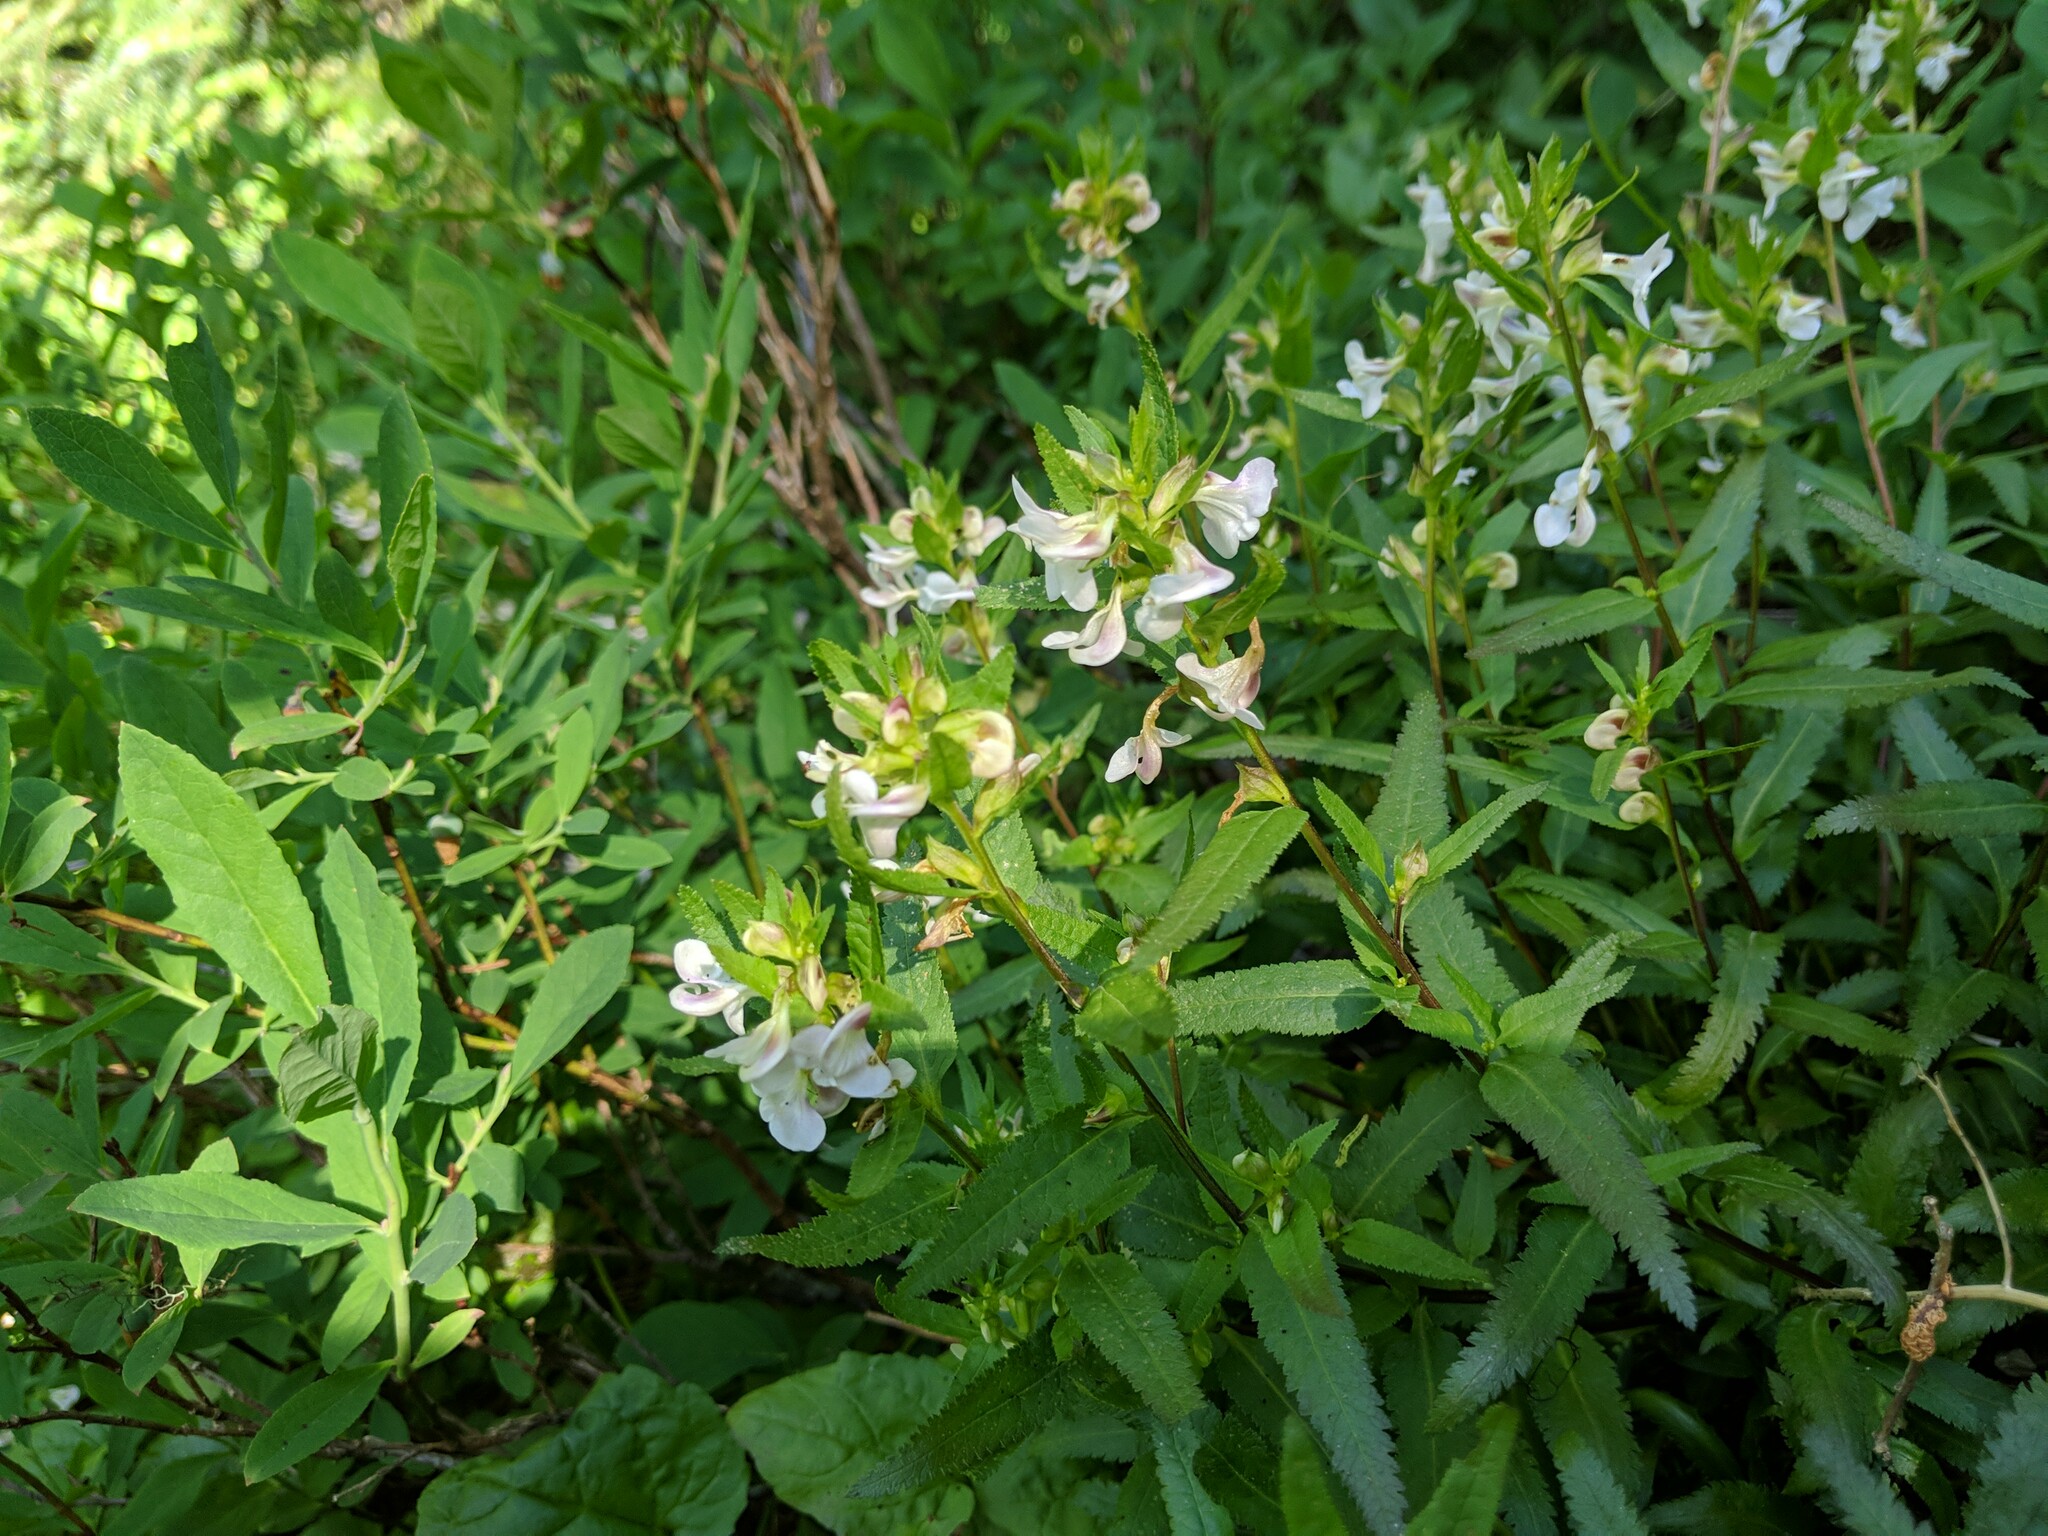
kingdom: Plantae
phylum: Tracheophyta
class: Magnoliopsida
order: Lamiales
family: Orobanchaceae
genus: Pedicularis
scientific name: Pedicularis racemosa
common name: Leafy lousewort
